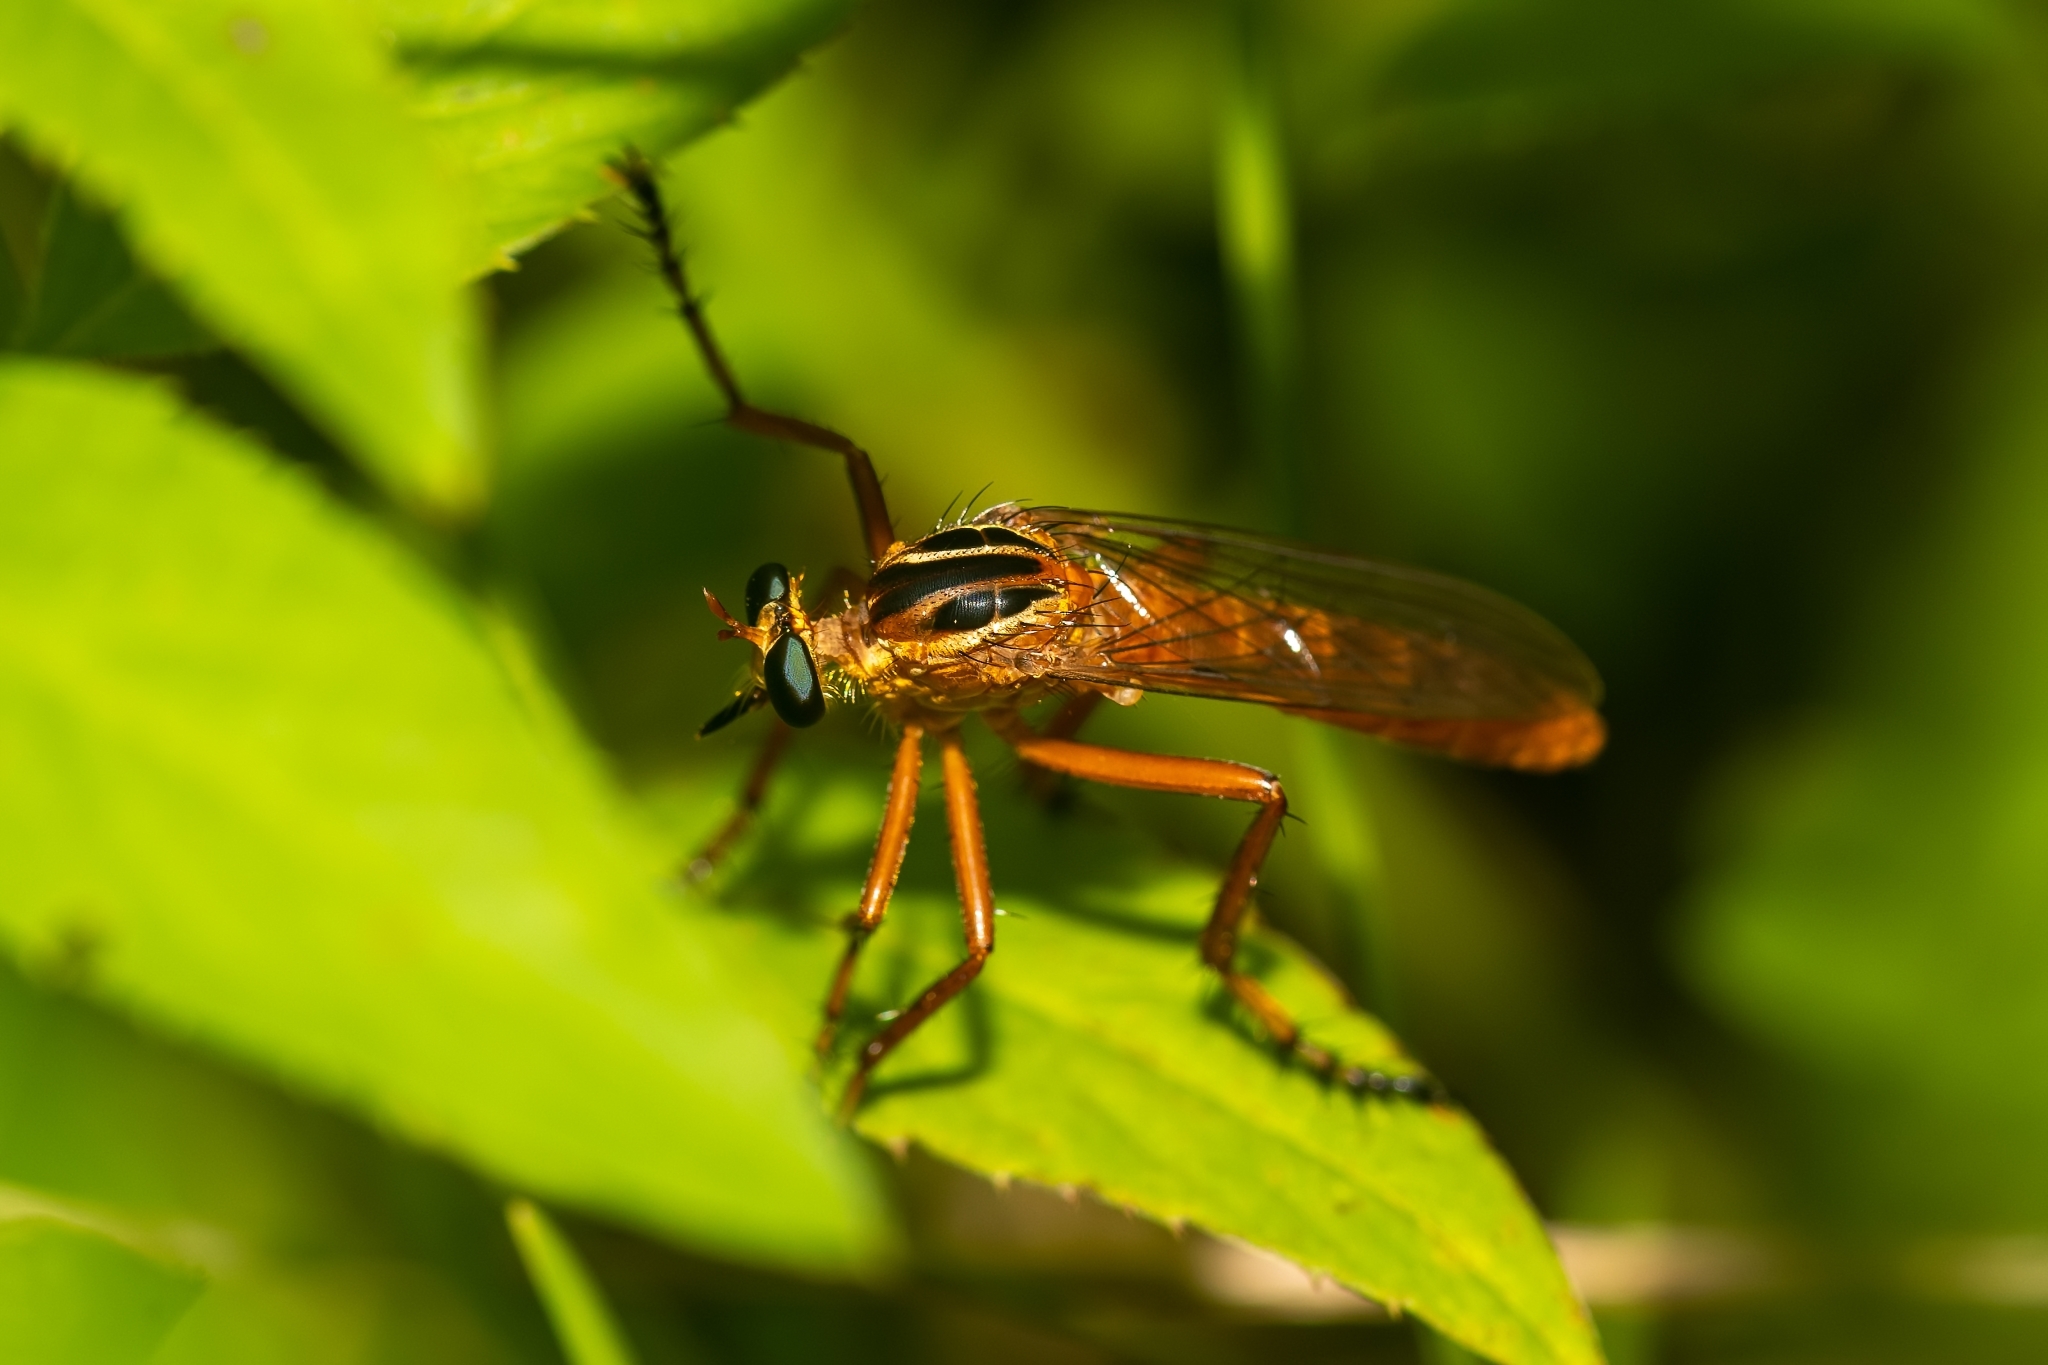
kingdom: Animalia
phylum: Arthropoda
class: Insecta
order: Diptera
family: Asilidae
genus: Diogmites
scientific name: Diogmites neoternatus
